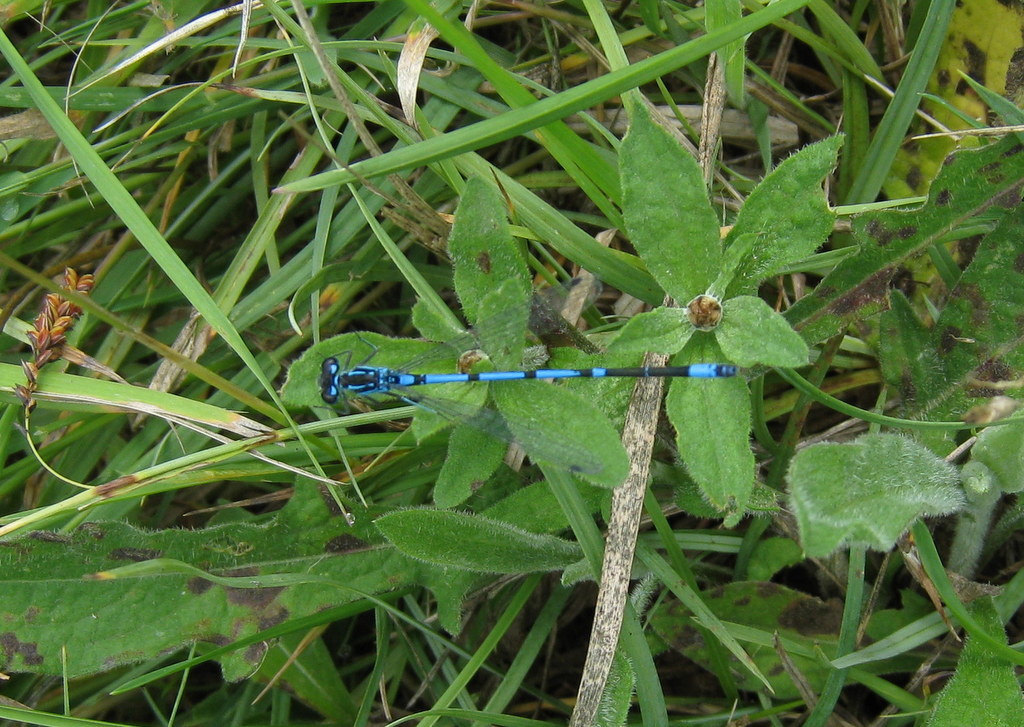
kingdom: Animalia
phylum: Arthropoda
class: Insecta
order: Odonata
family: Coenagrionidae
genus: Coenagrion
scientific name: Coenagrion pulchellum
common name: Variable bluet
